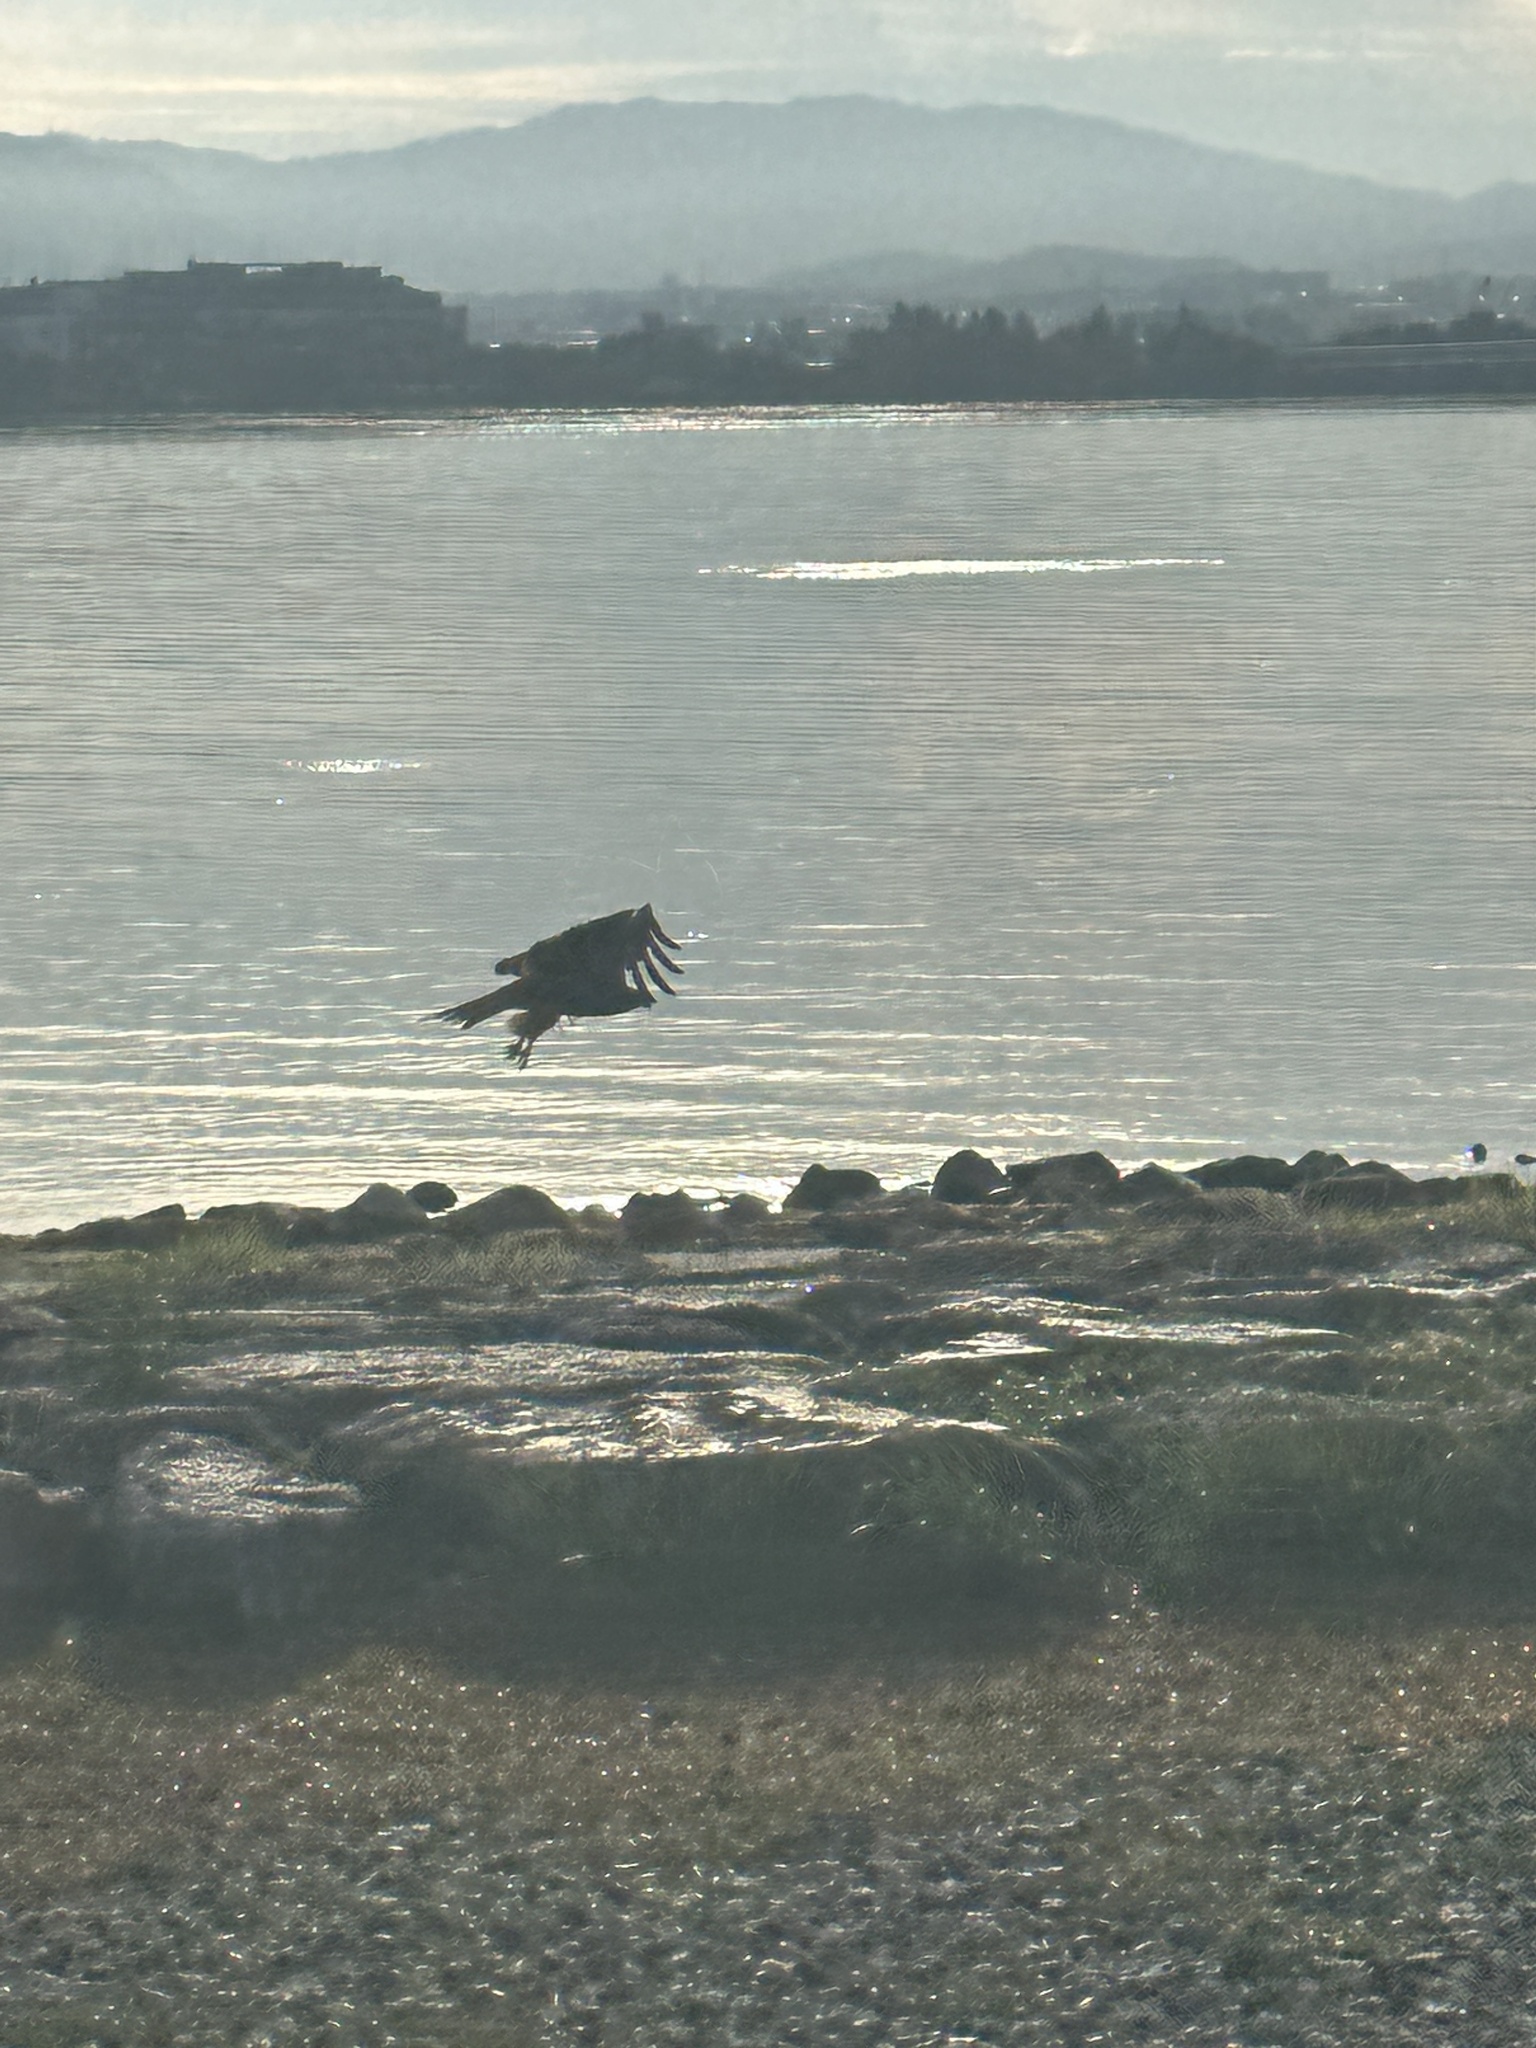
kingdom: Animalia
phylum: Chordata
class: Aves
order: Accipitriformes
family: Accipitridae
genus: Milvus
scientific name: Milvus migrans
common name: Black kite
